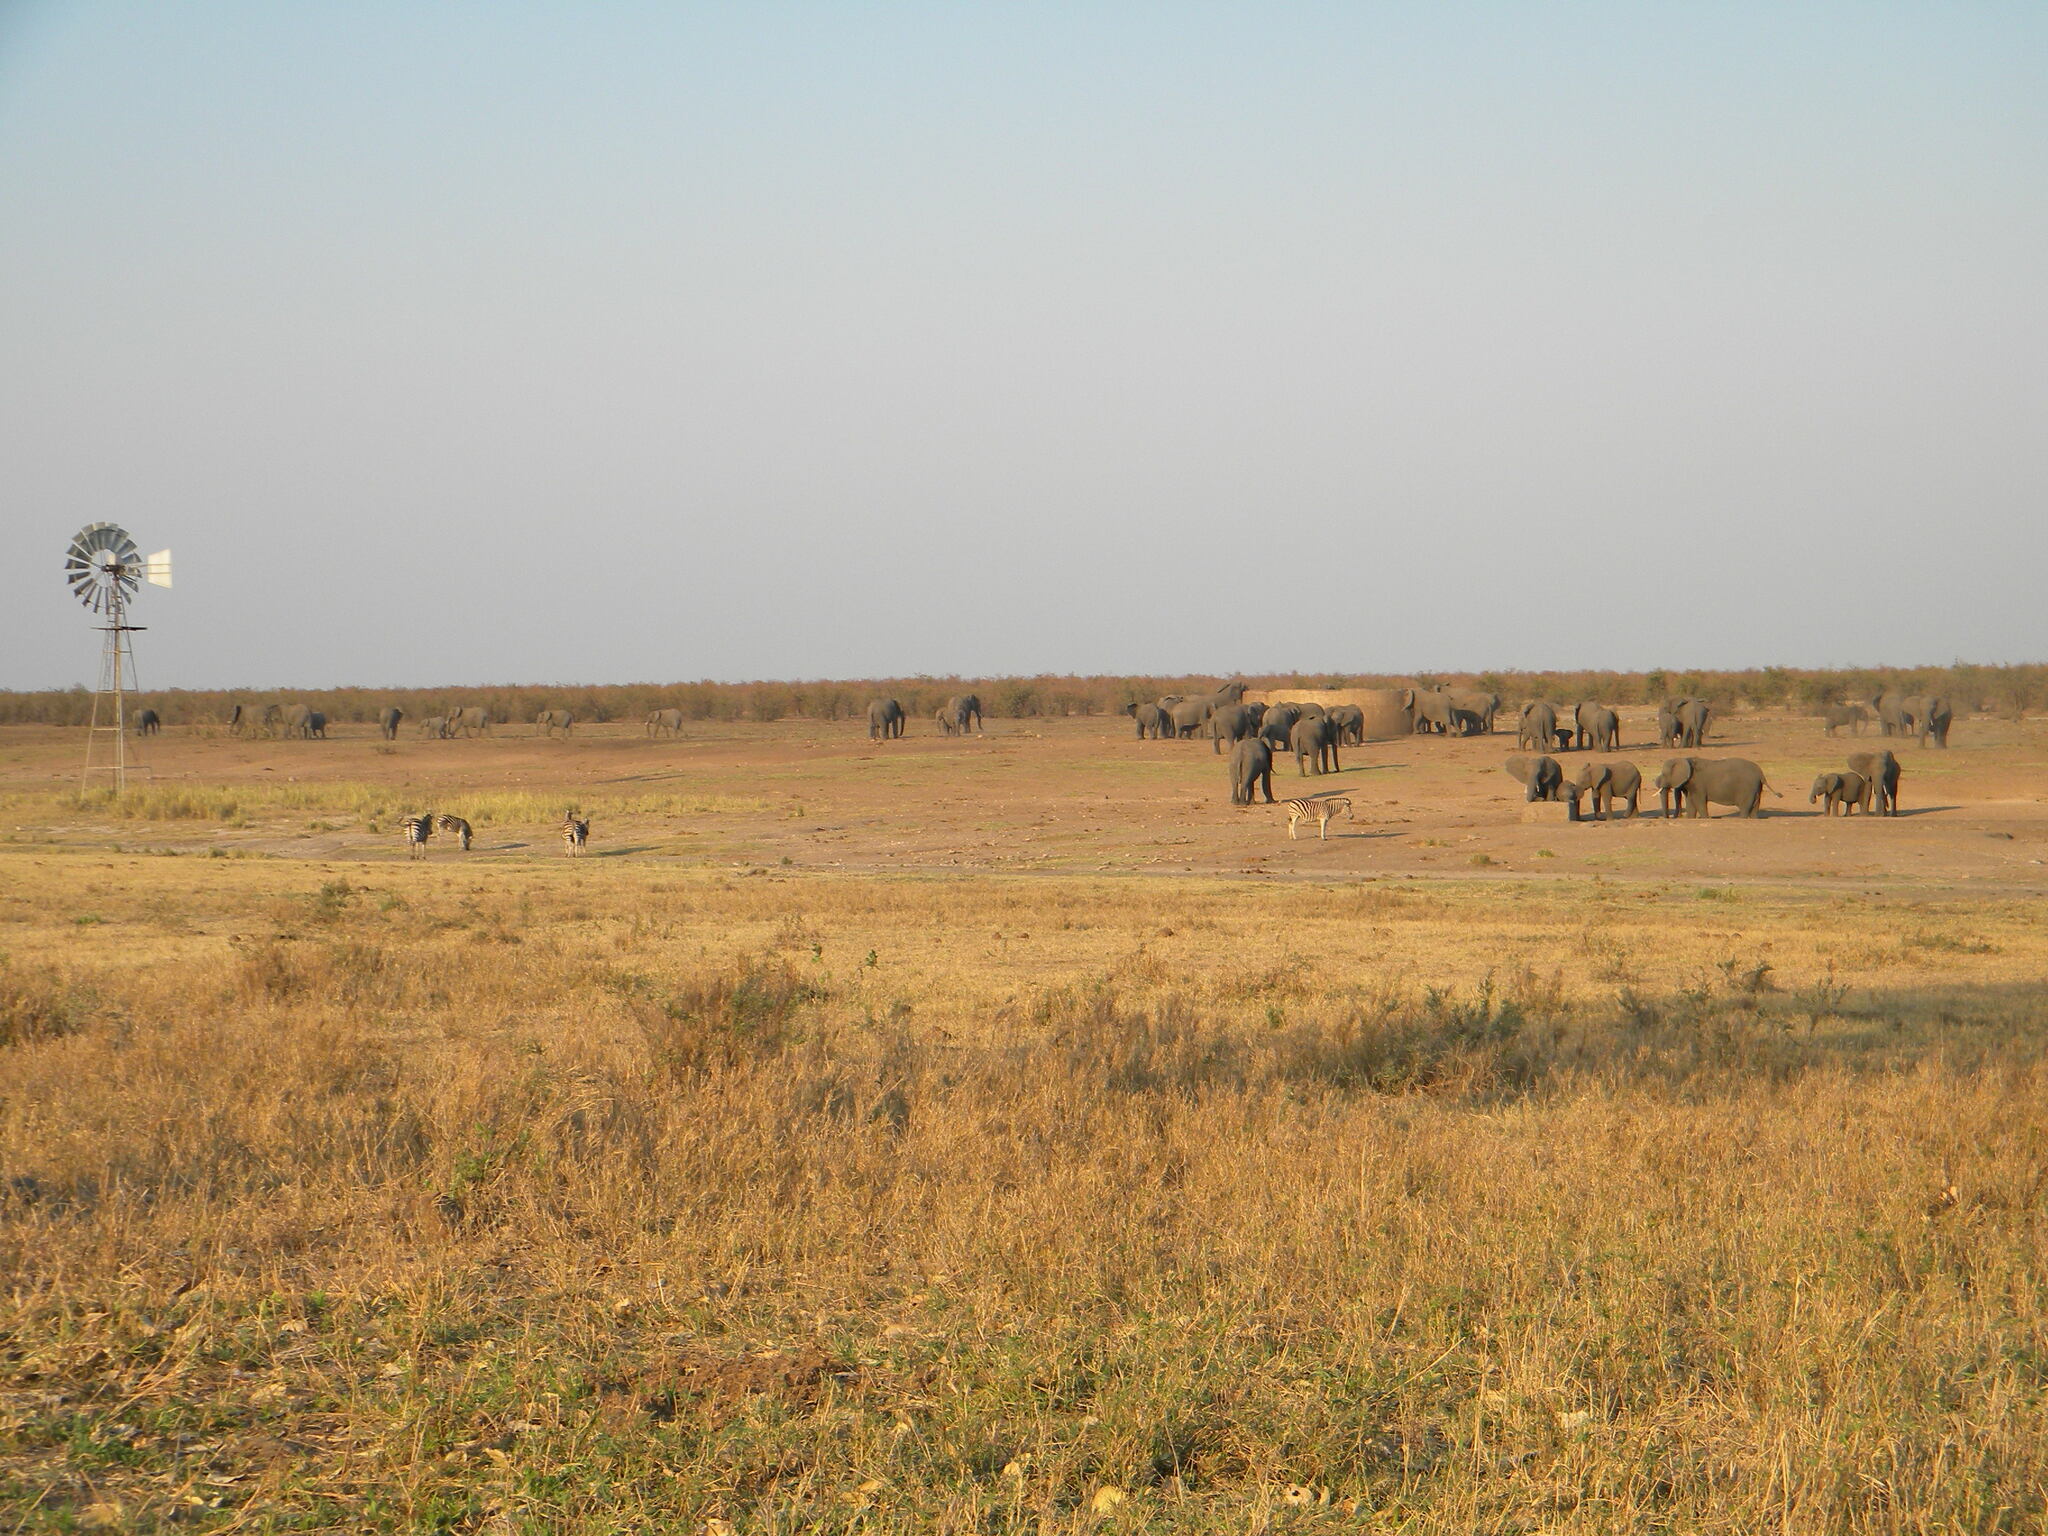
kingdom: Animalia
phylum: Chordata
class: Mammalia
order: Proboscidea
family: Elephantidae
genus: Loxodonta
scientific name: Loxodonta africana
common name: African elephant
